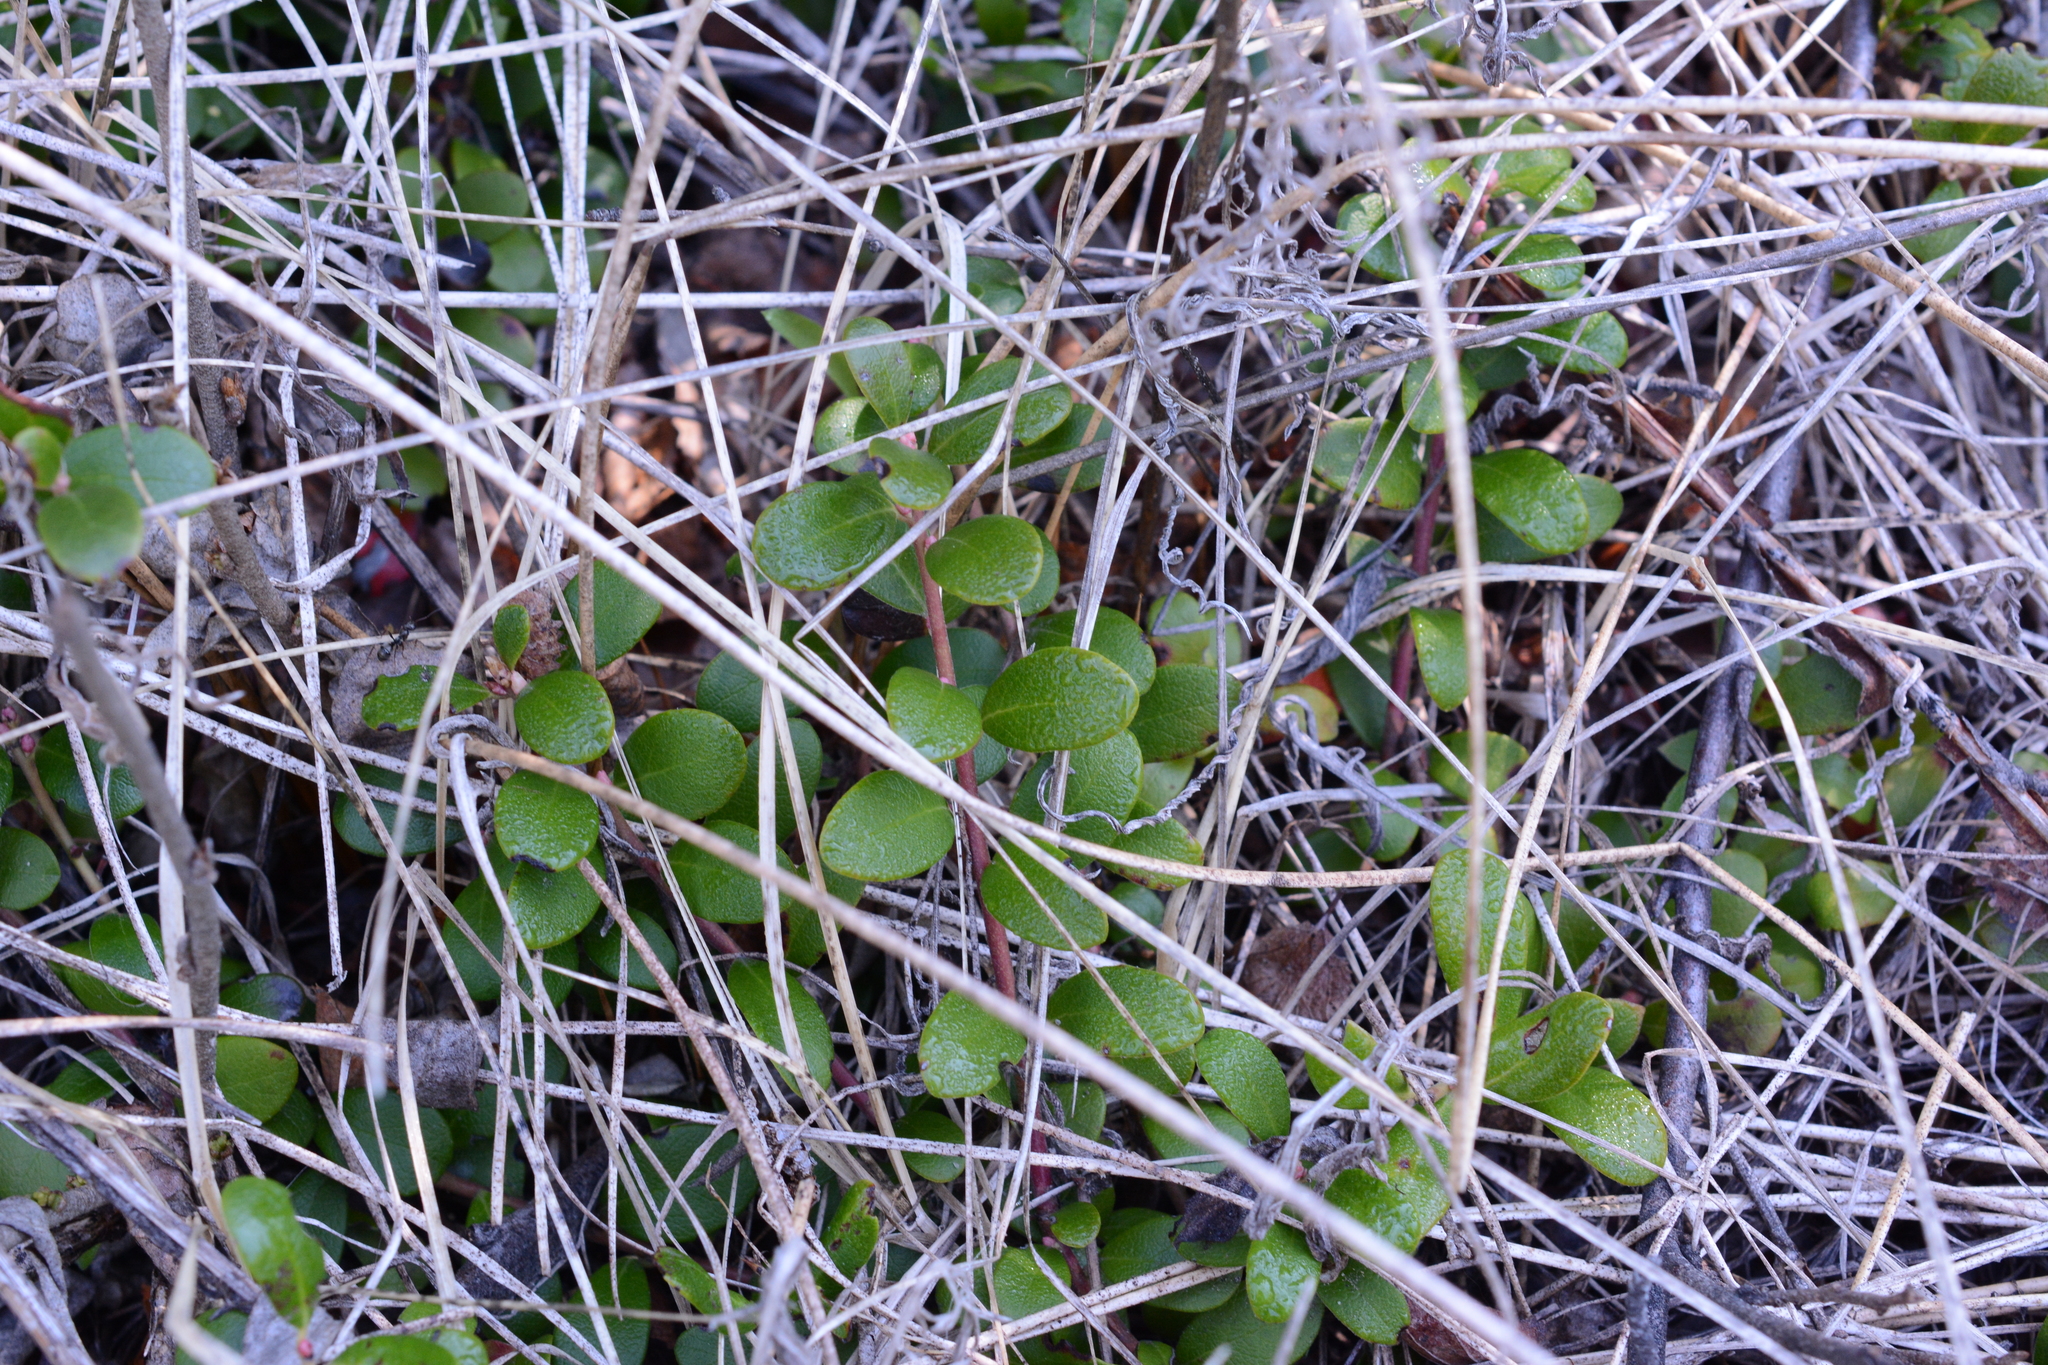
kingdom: Plantae
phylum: Tracheophyta
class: Magnoliopsida
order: Ericales
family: Ericaceae
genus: Arctostaphylos
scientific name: Arctostaphylos uva-ursi
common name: Bearberry
